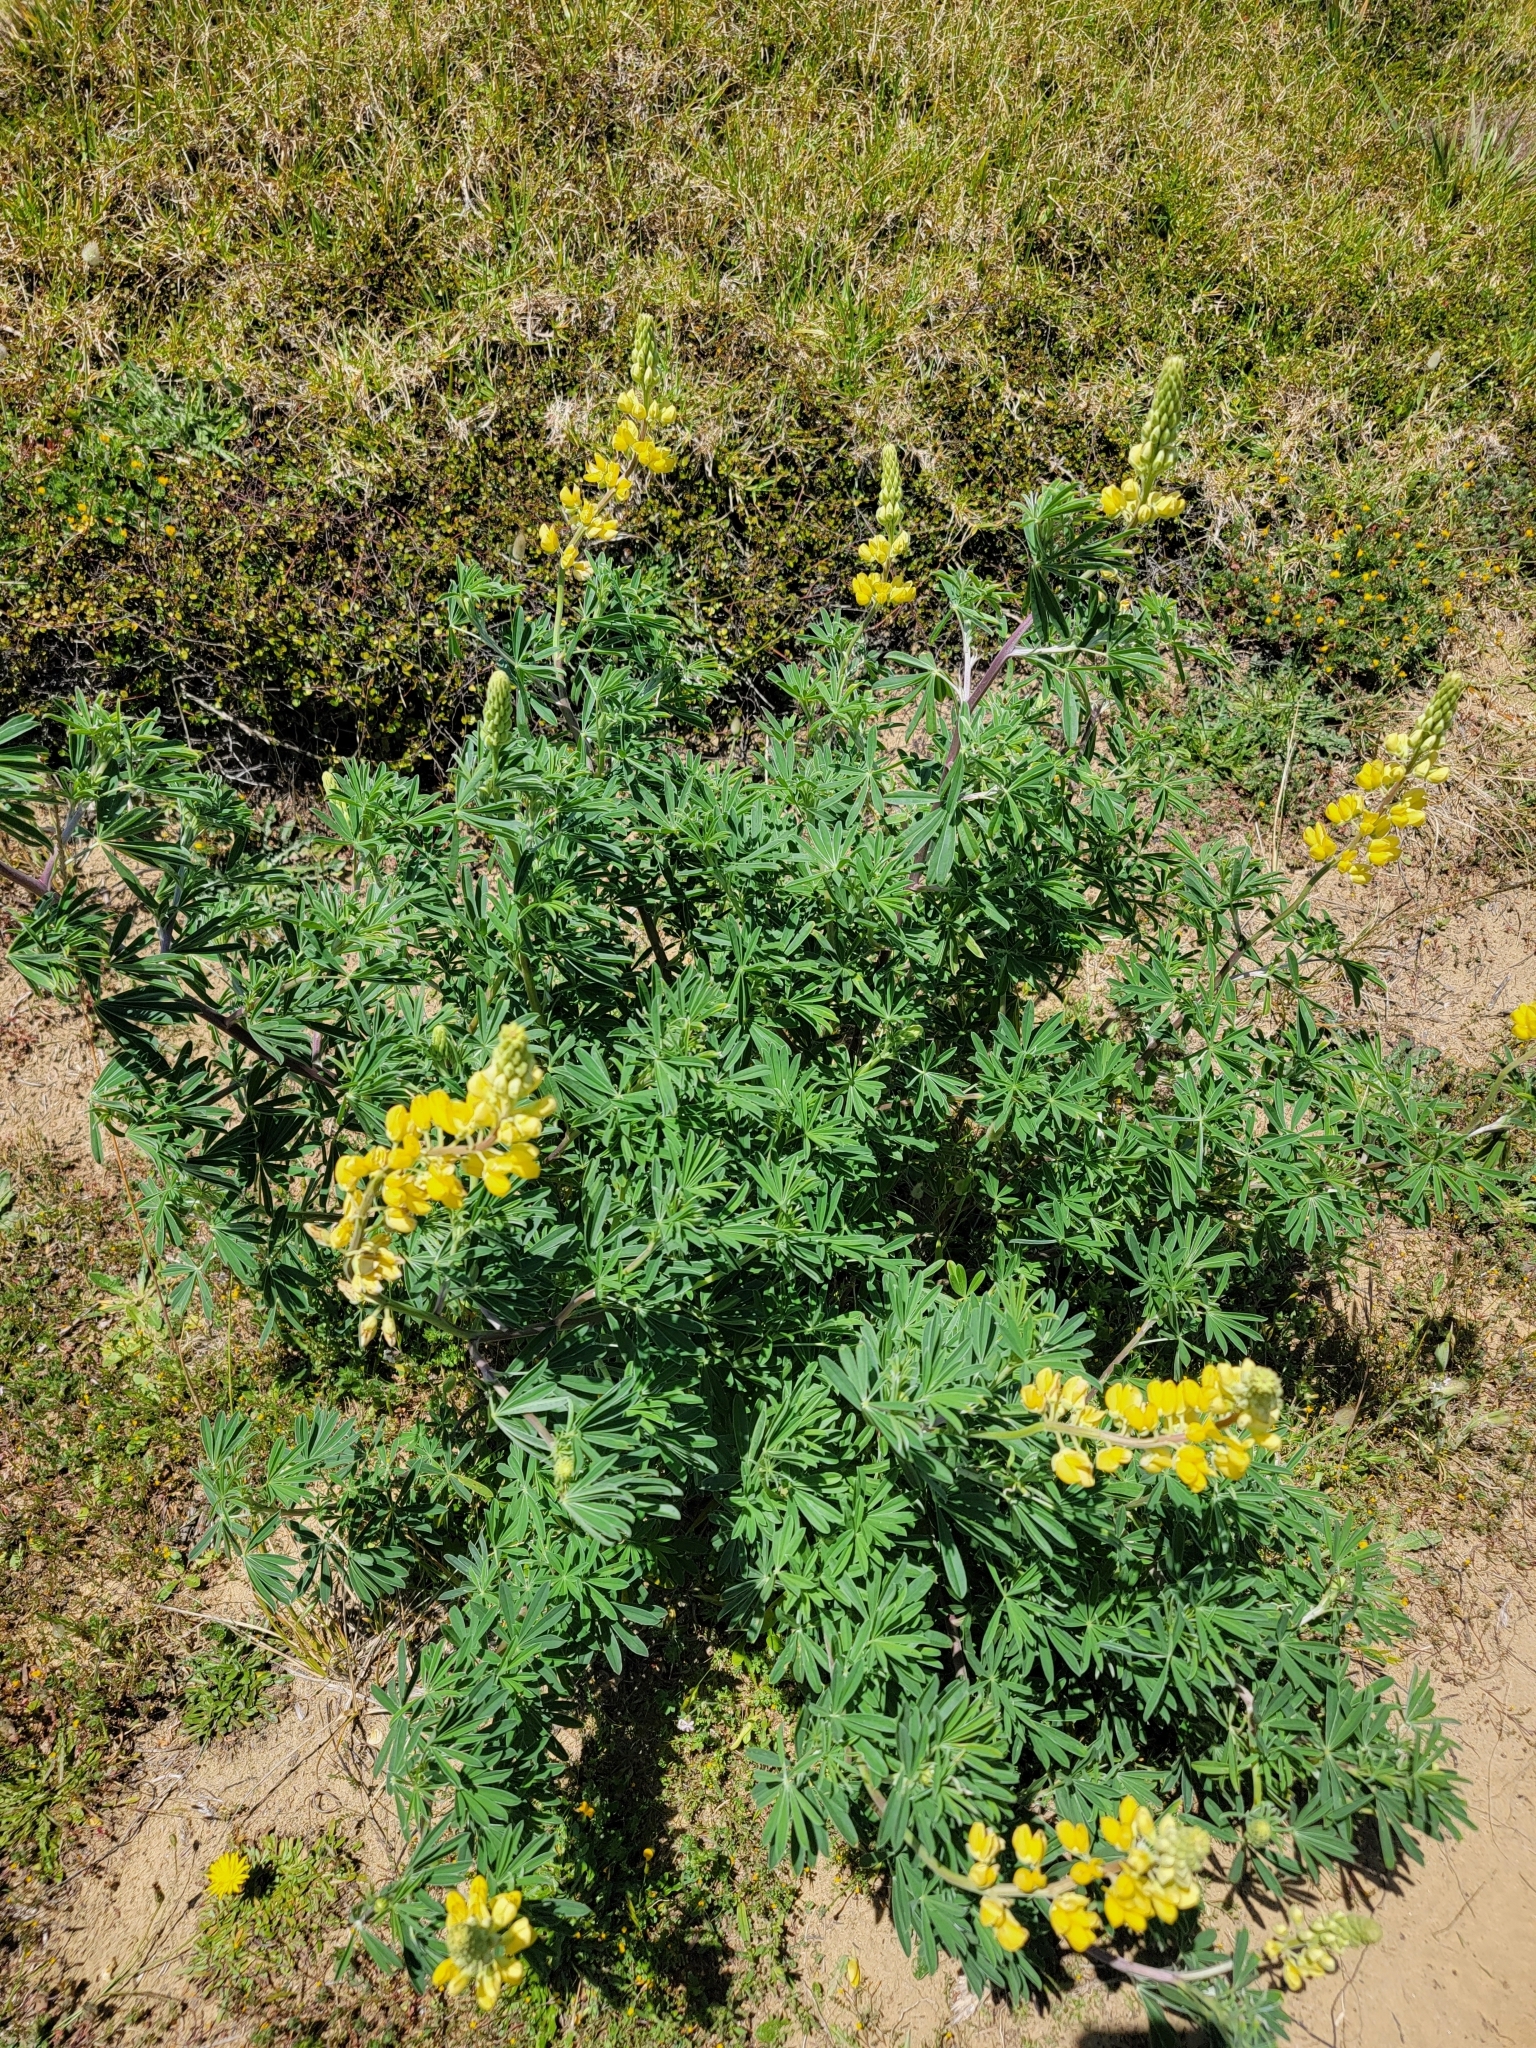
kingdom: Plantae
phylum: Tracheophyta
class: Magnoliopsida
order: Fabales
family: Fabaceae
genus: Lupinus
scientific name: Lupinus arboreus
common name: Yellow bush lupine
